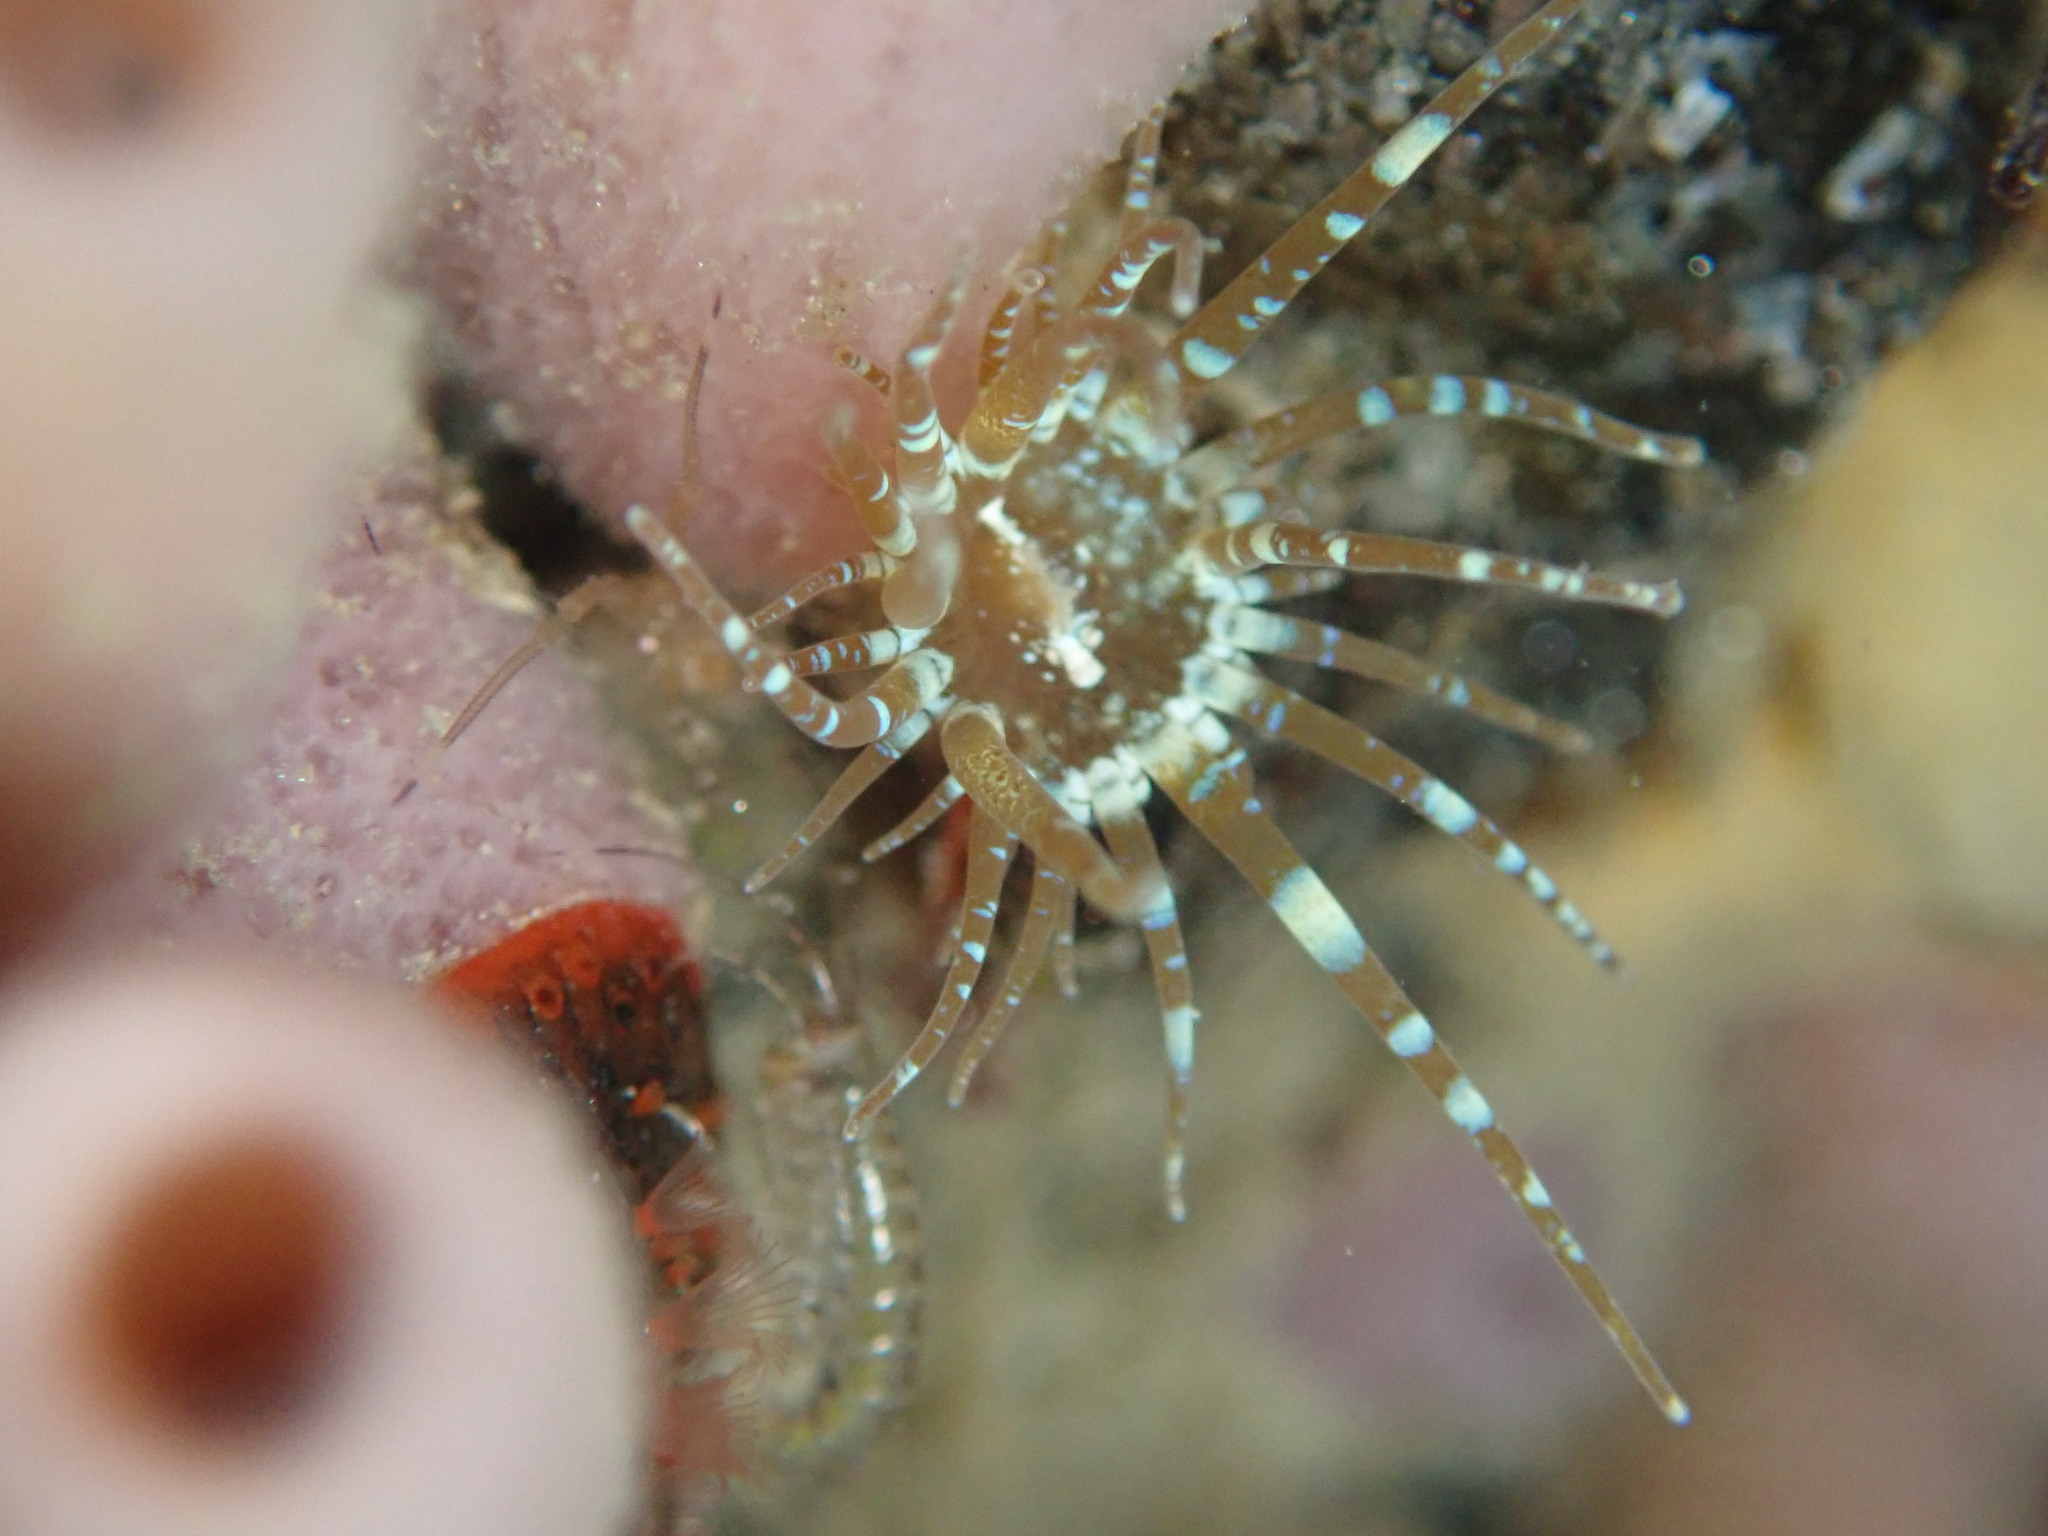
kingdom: Animalia
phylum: Cnidaria
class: Anthozoa
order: Actiniaria
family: Aiptasiidae
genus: Exaiptasia
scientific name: Exaiptasia diaphana
